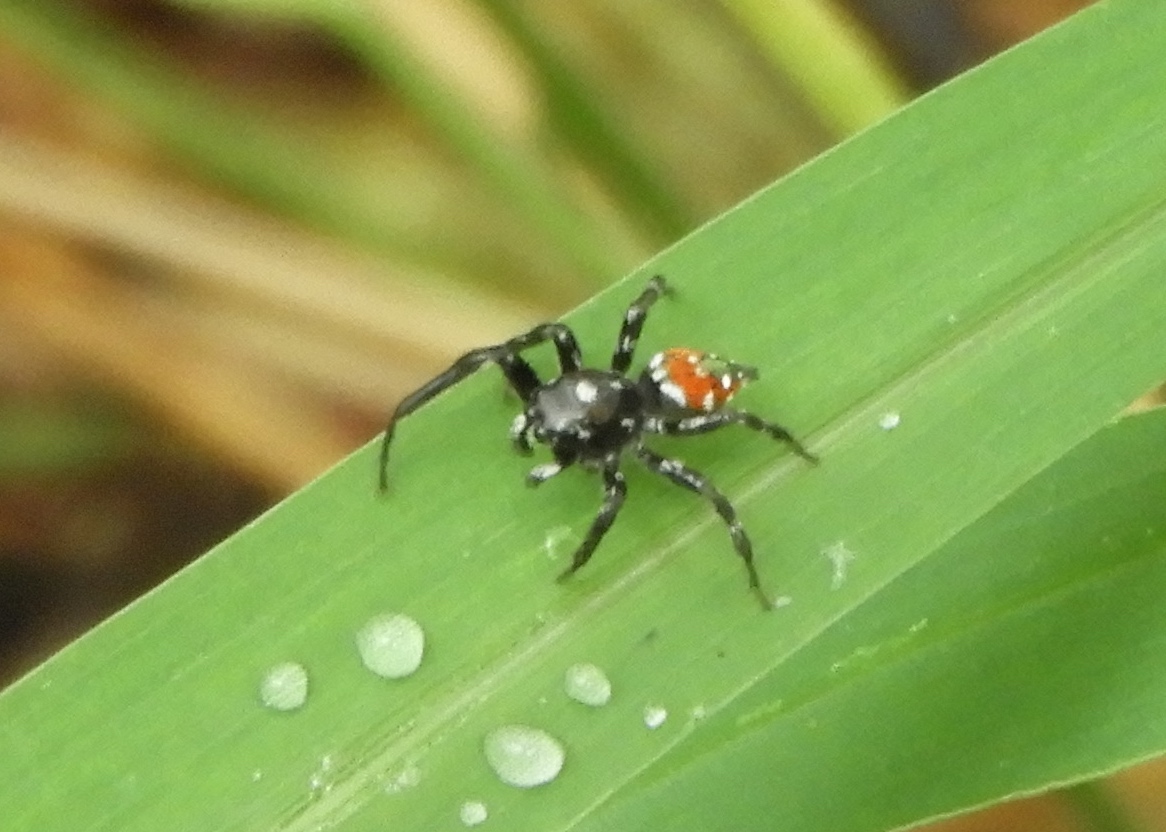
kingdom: Animalia
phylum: Arthropoda
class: Arachnida
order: Araneae
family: Salticidae
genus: Nycerella
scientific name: Nycerella delecta
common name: Jumping spiders
